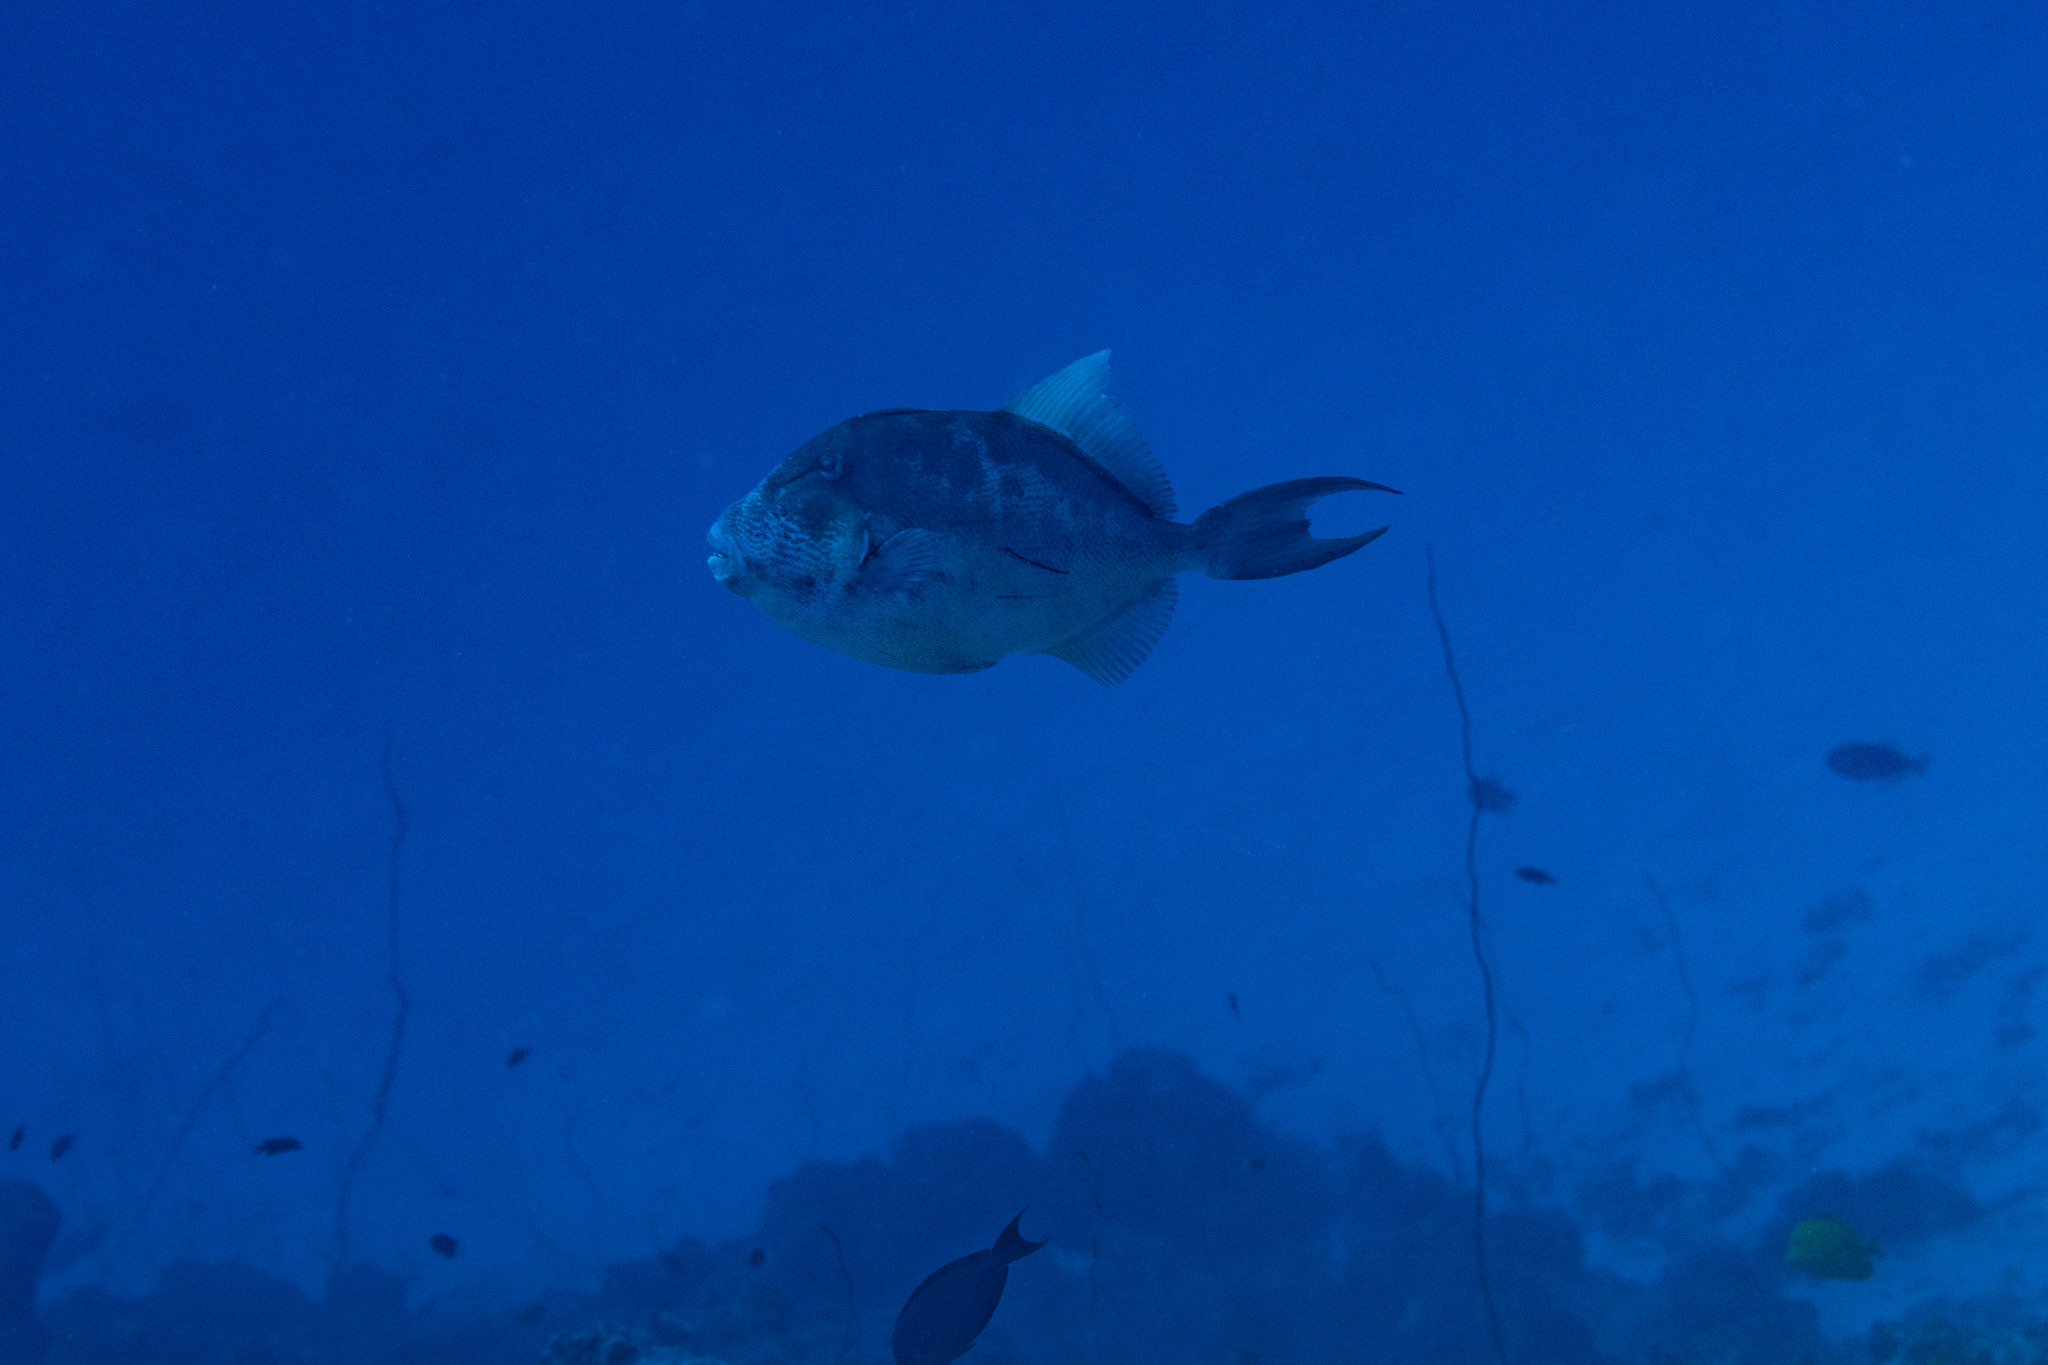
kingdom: Animalia
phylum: Chordata
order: Tetraodontiformes
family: Balistidae
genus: Balistes
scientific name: Balistes polylepis
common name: Finescale triggerfish
